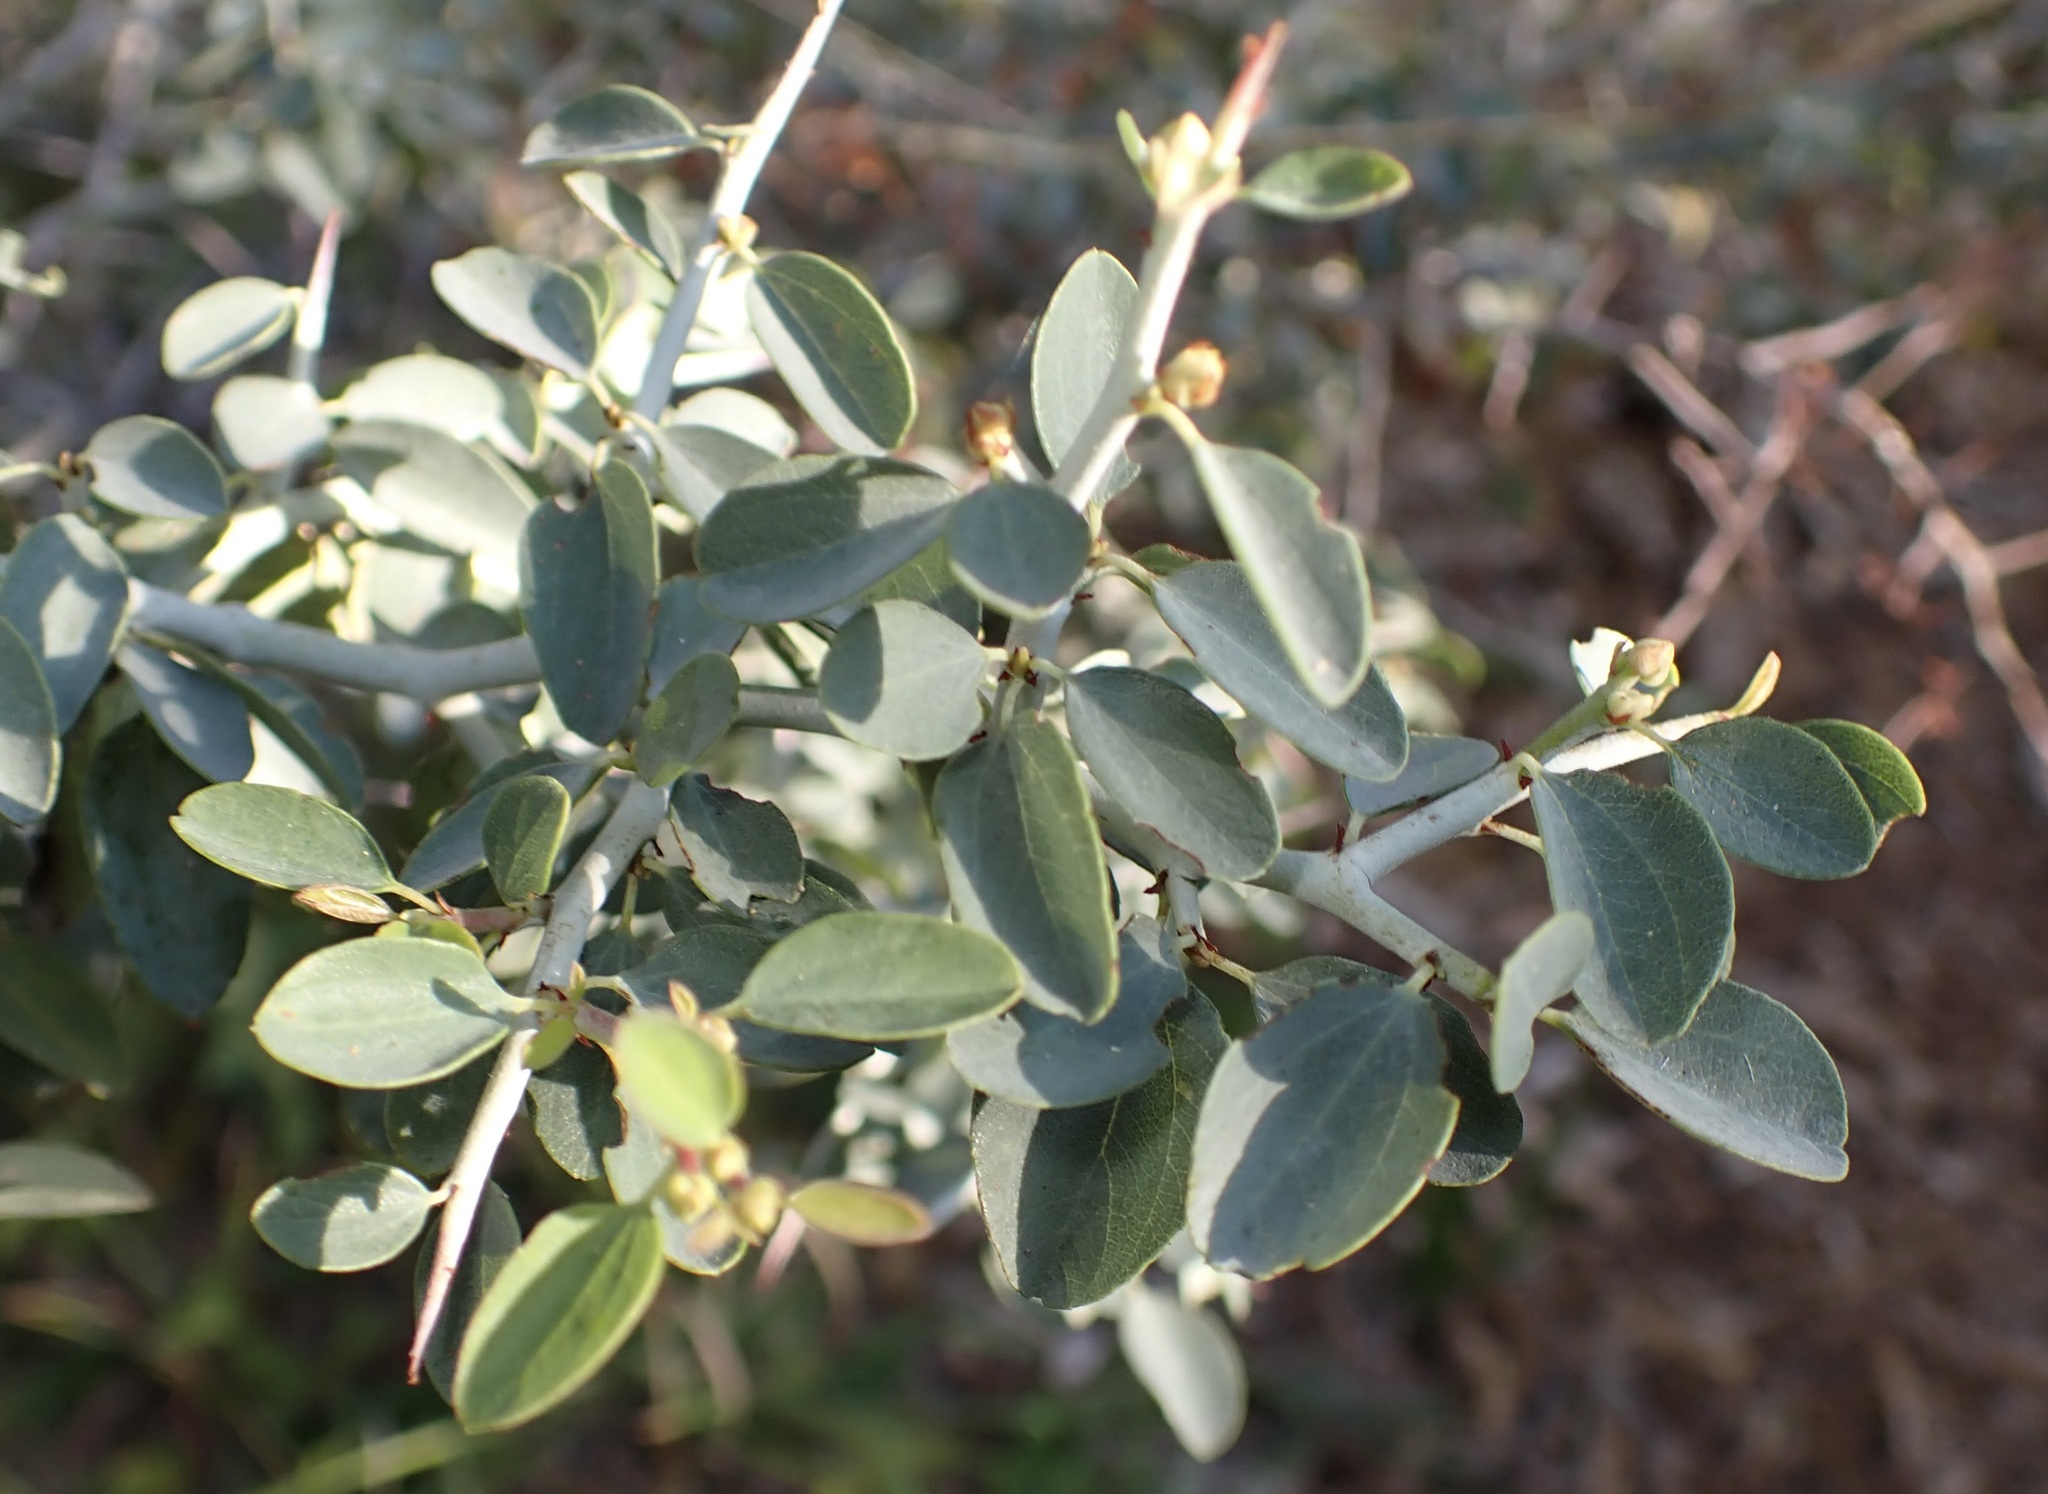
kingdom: Plantae
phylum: Tracheophyta
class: Magnoliopsida
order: Rosales
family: Rhamnaceae
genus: Ceanothus
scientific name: Ceanothus cordulatus
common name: Mountain whitethorn
